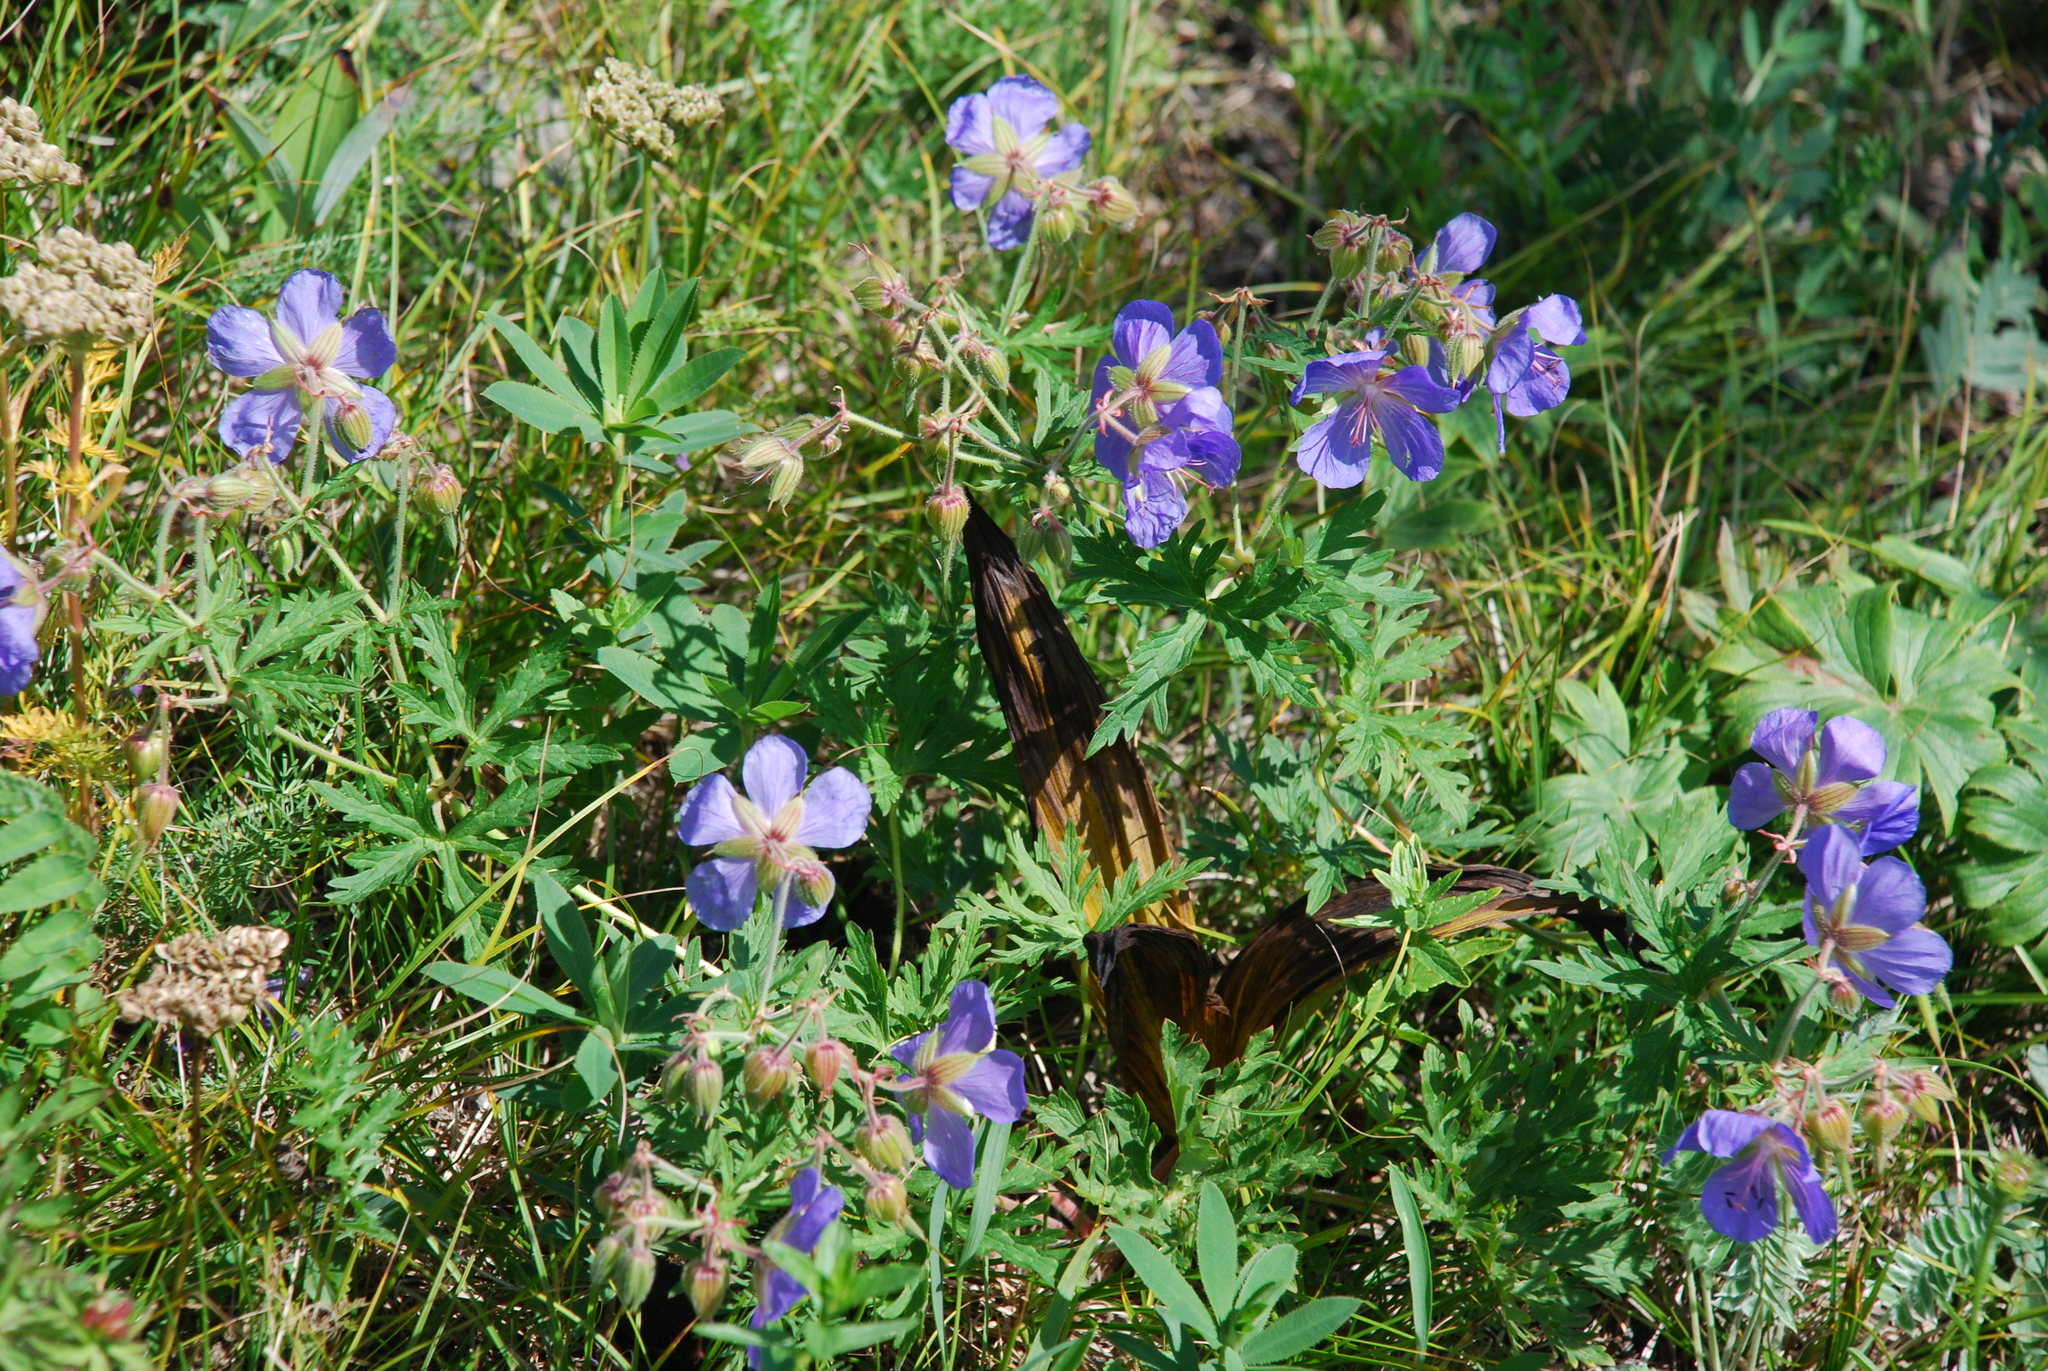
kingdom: Plantae
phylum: Tracheophyta
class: Magnoliopsida
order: Geraniales
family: Geraniaceae
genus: Geranium
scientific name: Geranium pratense
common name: Meadow crane's-bill
